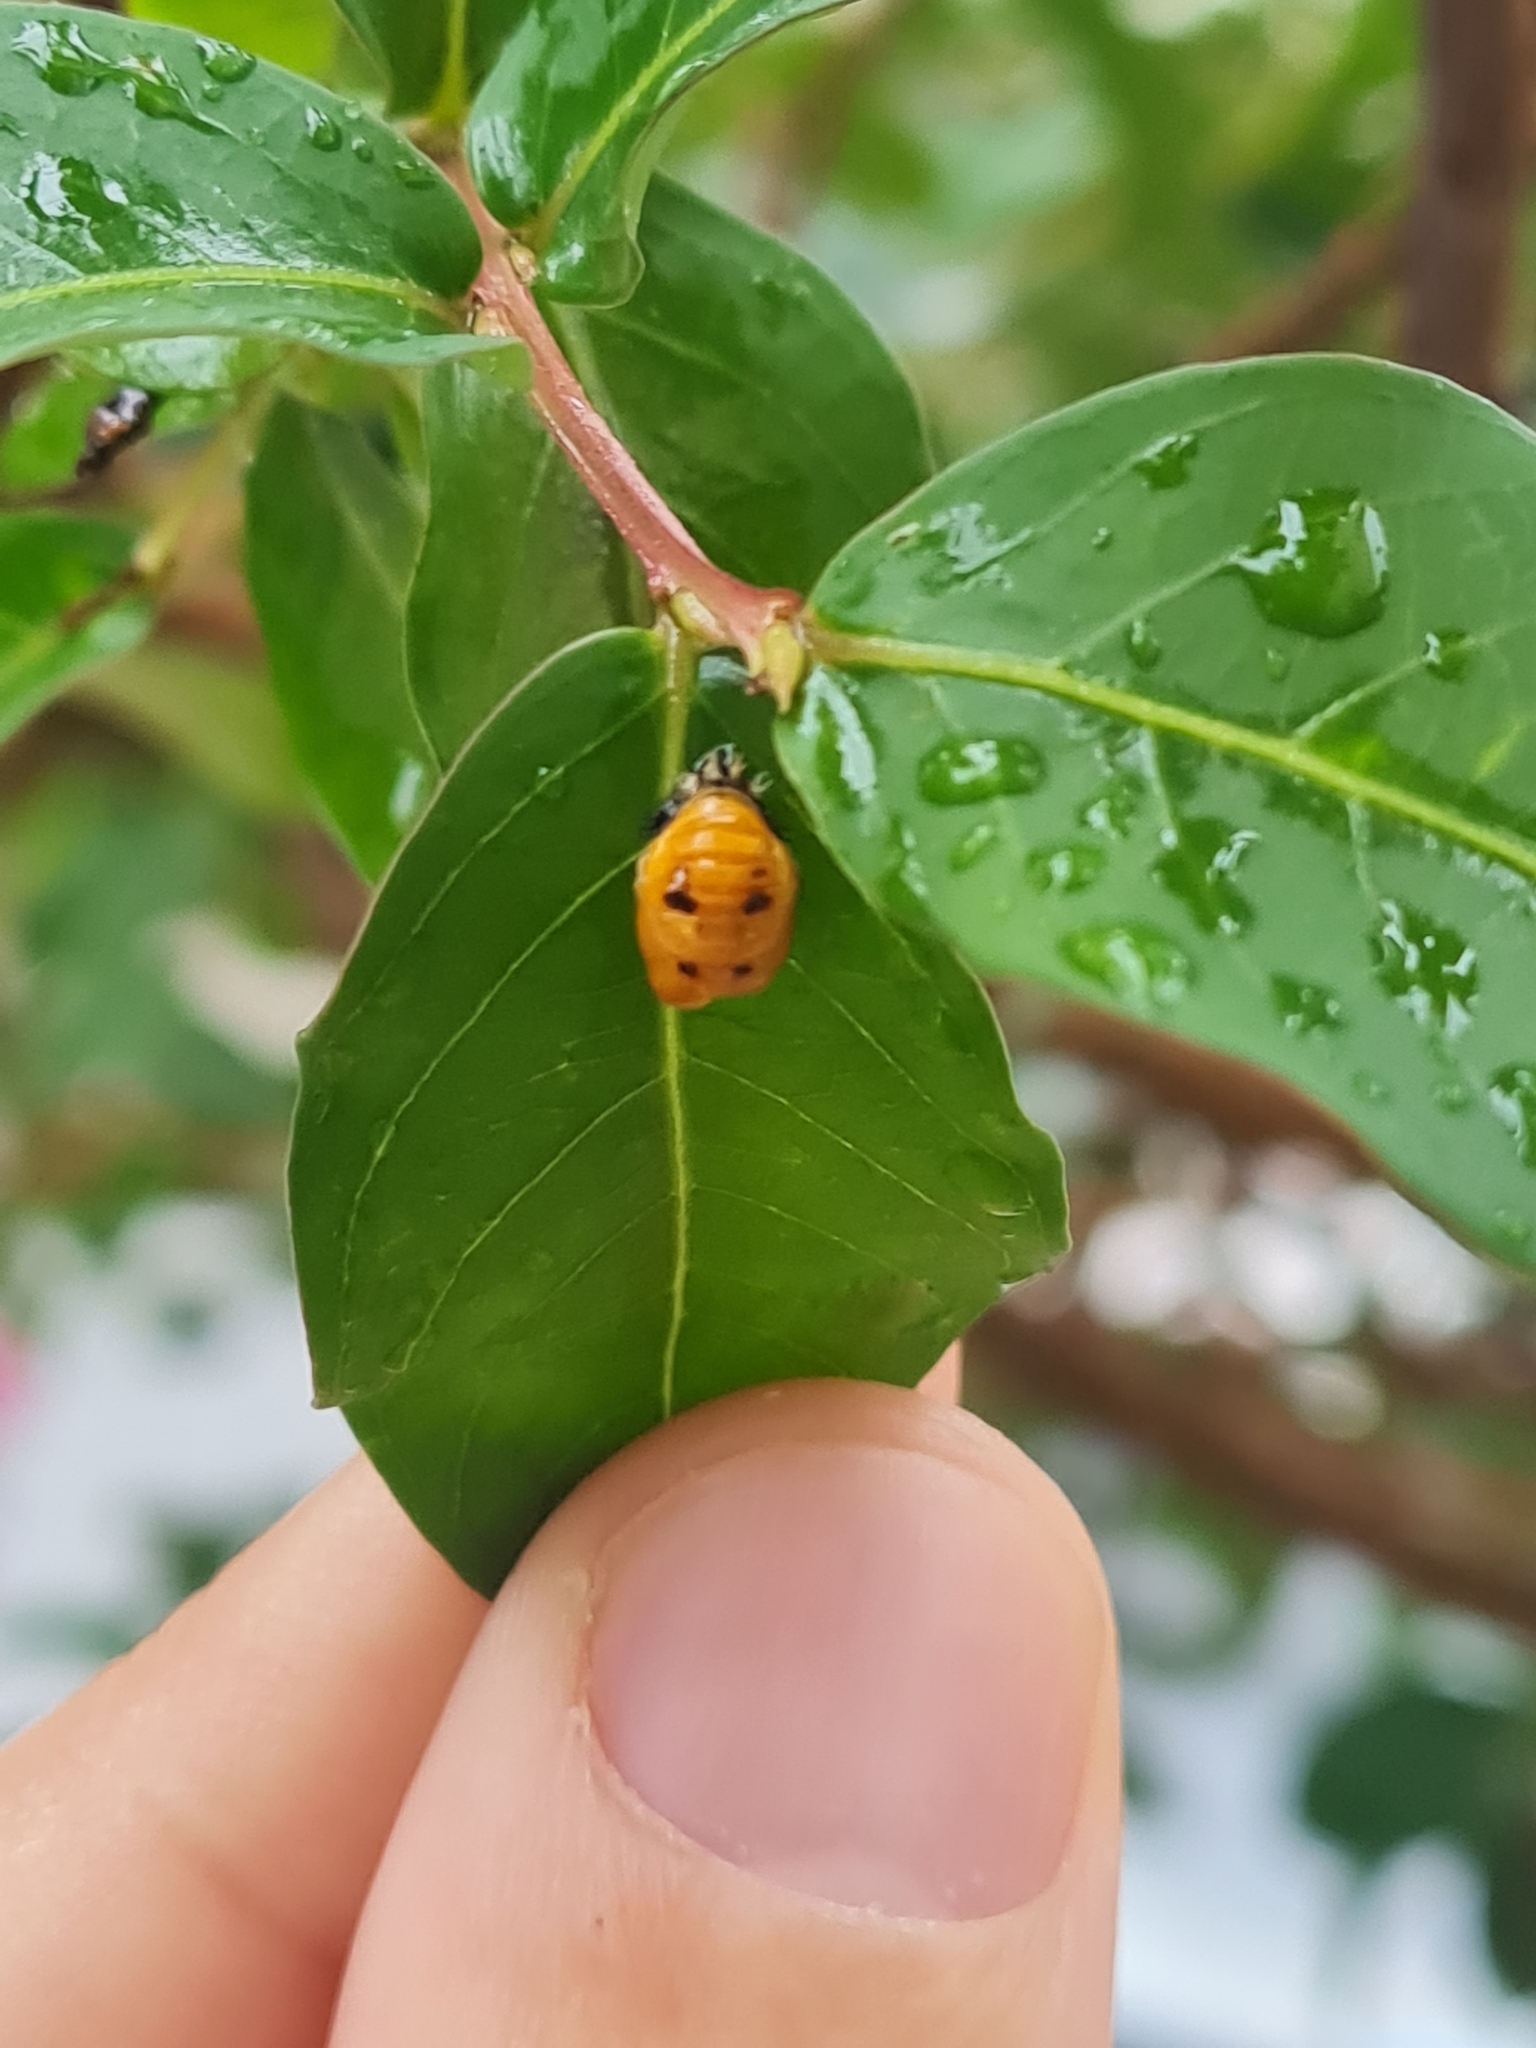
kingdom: Animalia
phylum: Arthropoda
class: Insecta
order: Coleoptera
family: Coccinellidae
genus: Harmonia
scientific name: Harmonia axyridis
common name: Harlequin ladybird
